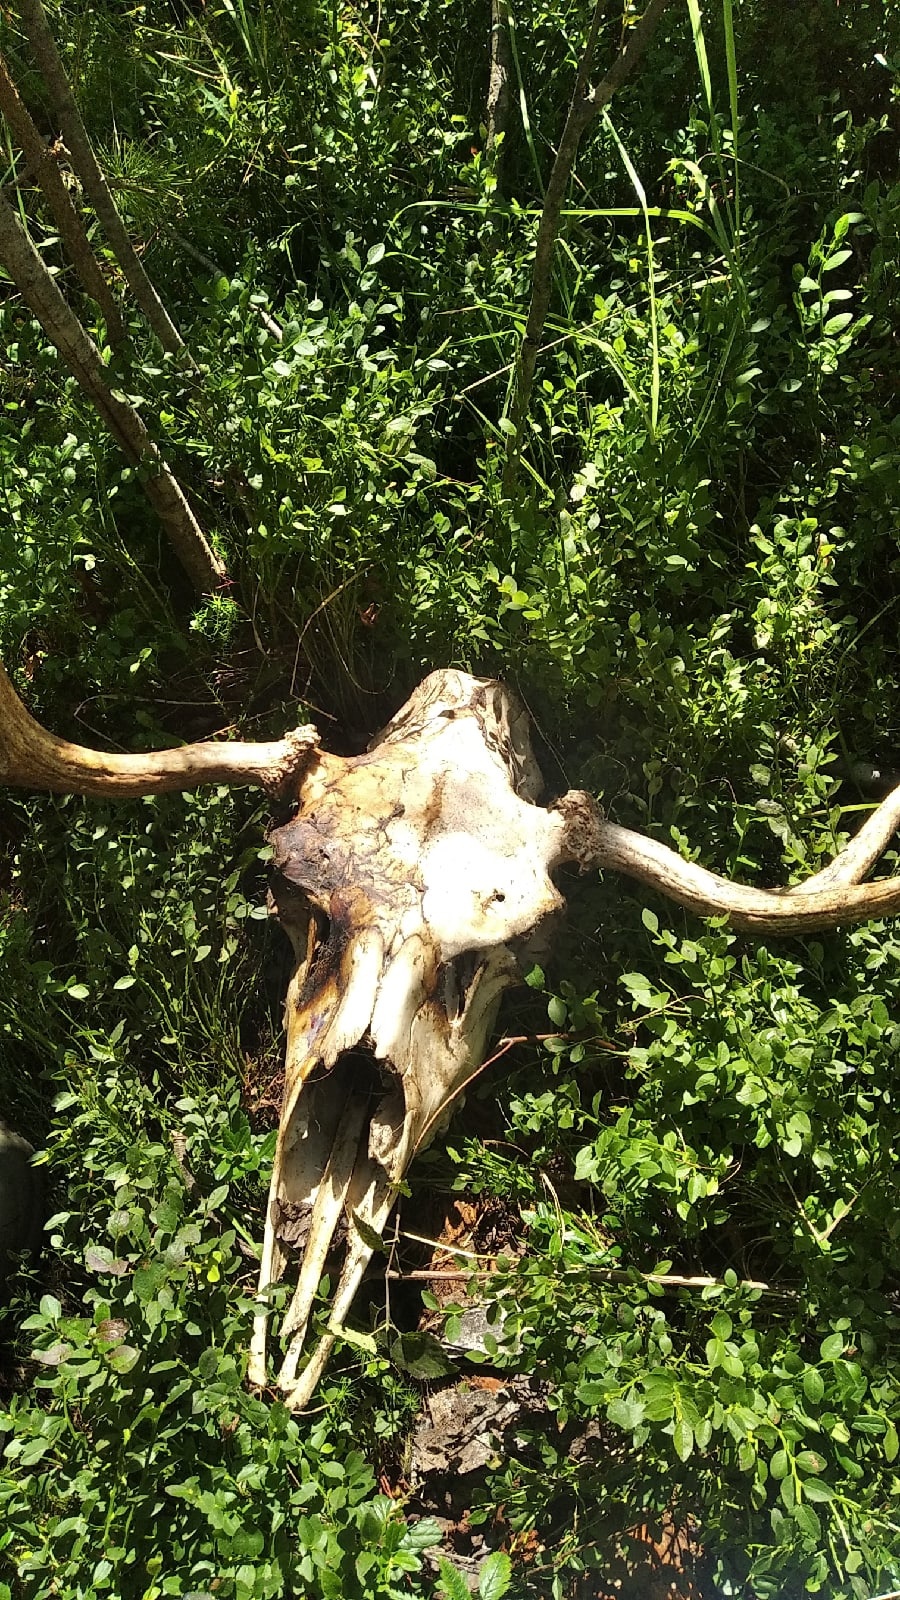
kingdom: Animalia
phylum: Chordata
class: Mammalia
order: Artiodactyla
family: Cervidae
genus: Alces
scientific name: Alces alces
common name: Moose
